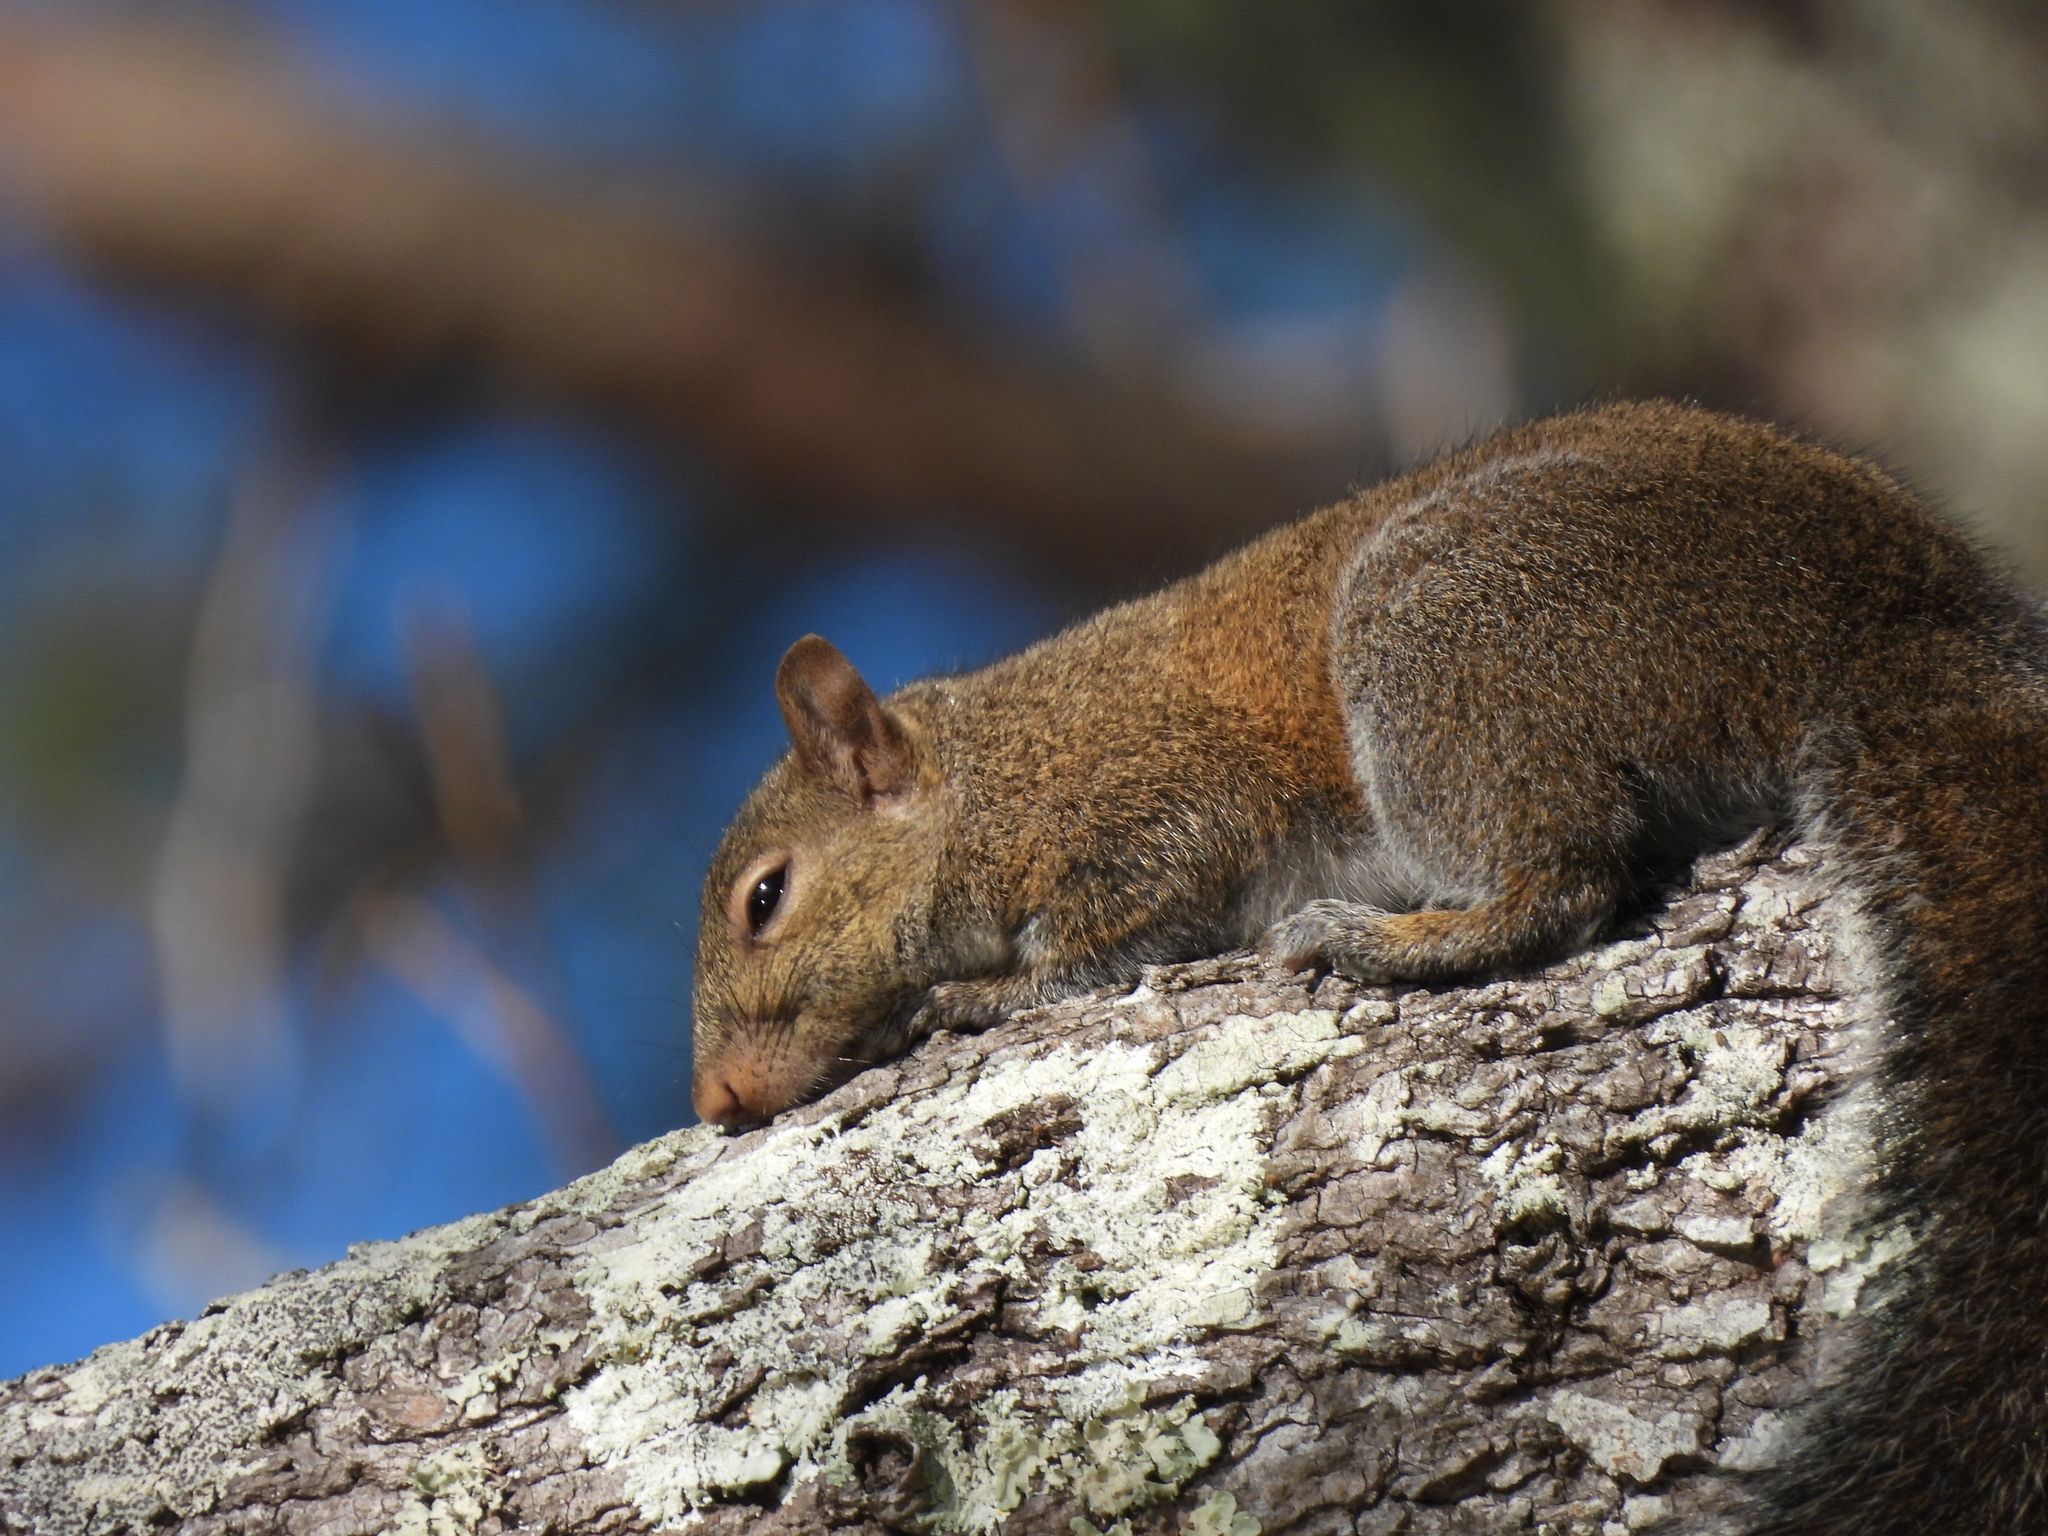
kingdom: Animalia
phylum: Chordata
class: Mammalia
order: Rodentia
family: Sciuridae
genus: Sciurus
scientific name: Sciurus carolinensis
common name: Eastern gray squirrel
